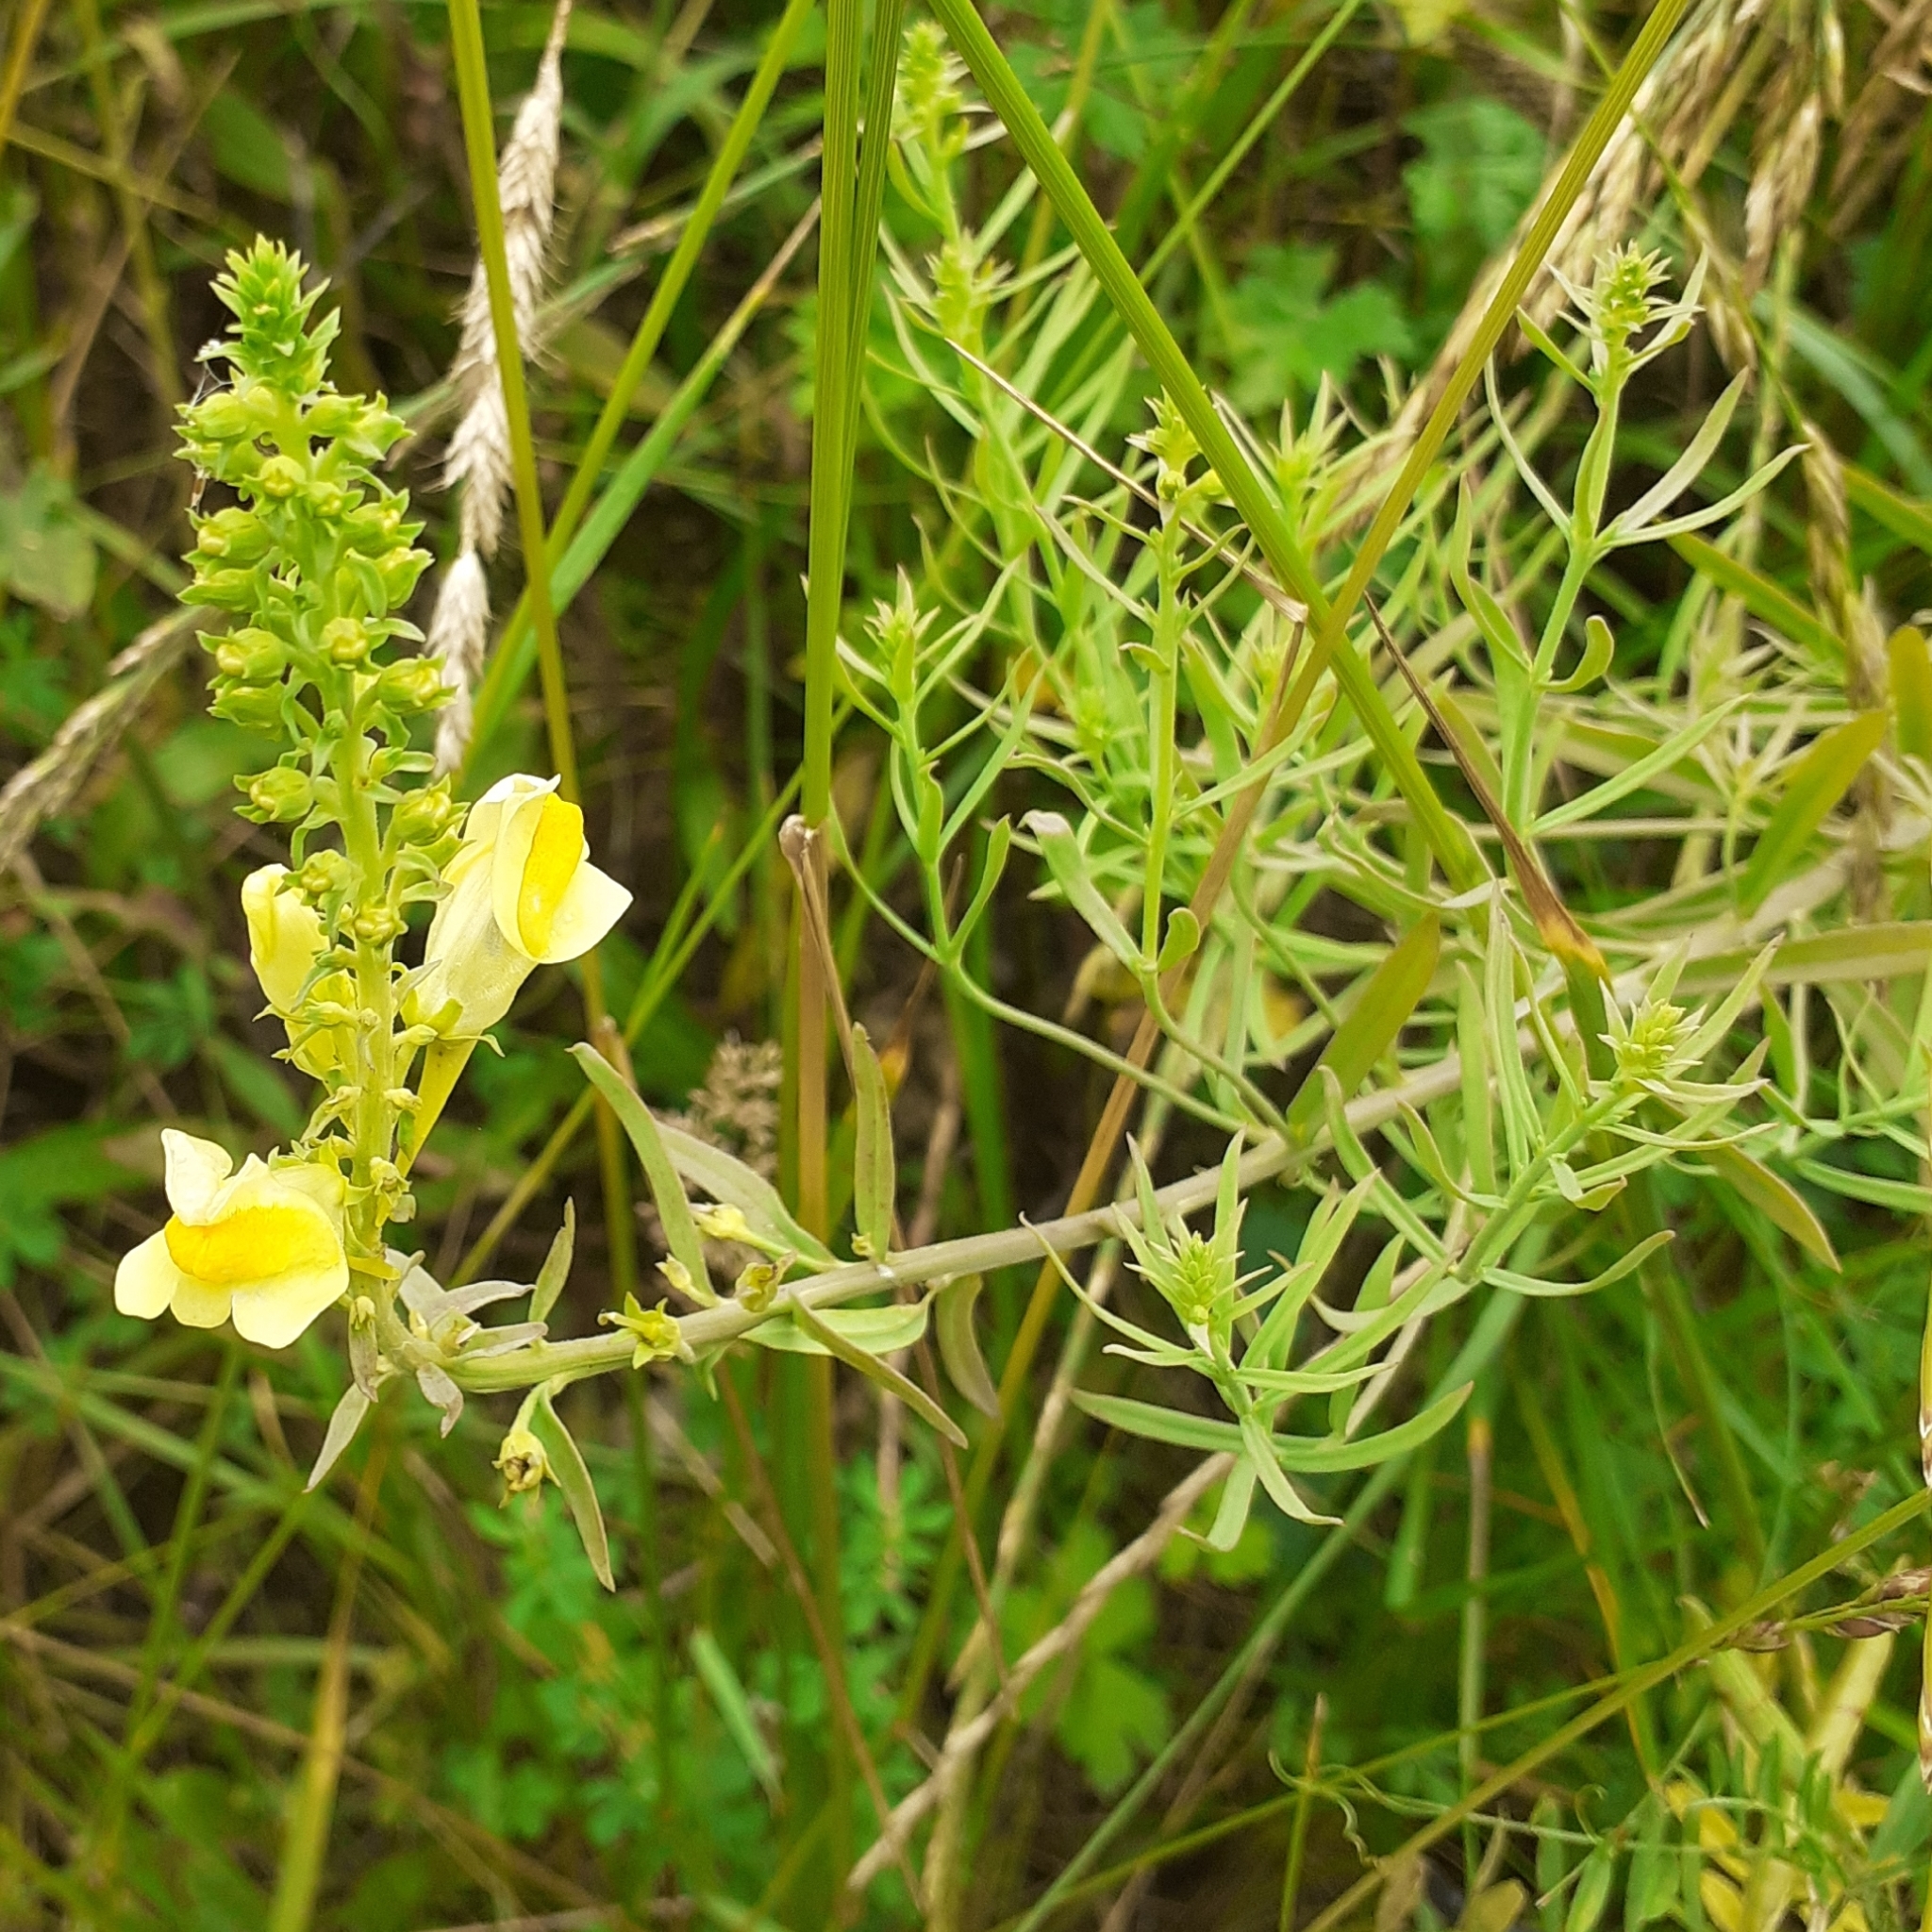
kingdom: Plantae
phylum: Tracheophyta
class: Magnoliopsida
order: Lamiales
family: Plantaginaceae
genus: Linaria
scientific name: Linaria vulgaris
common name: Butter and eggs
